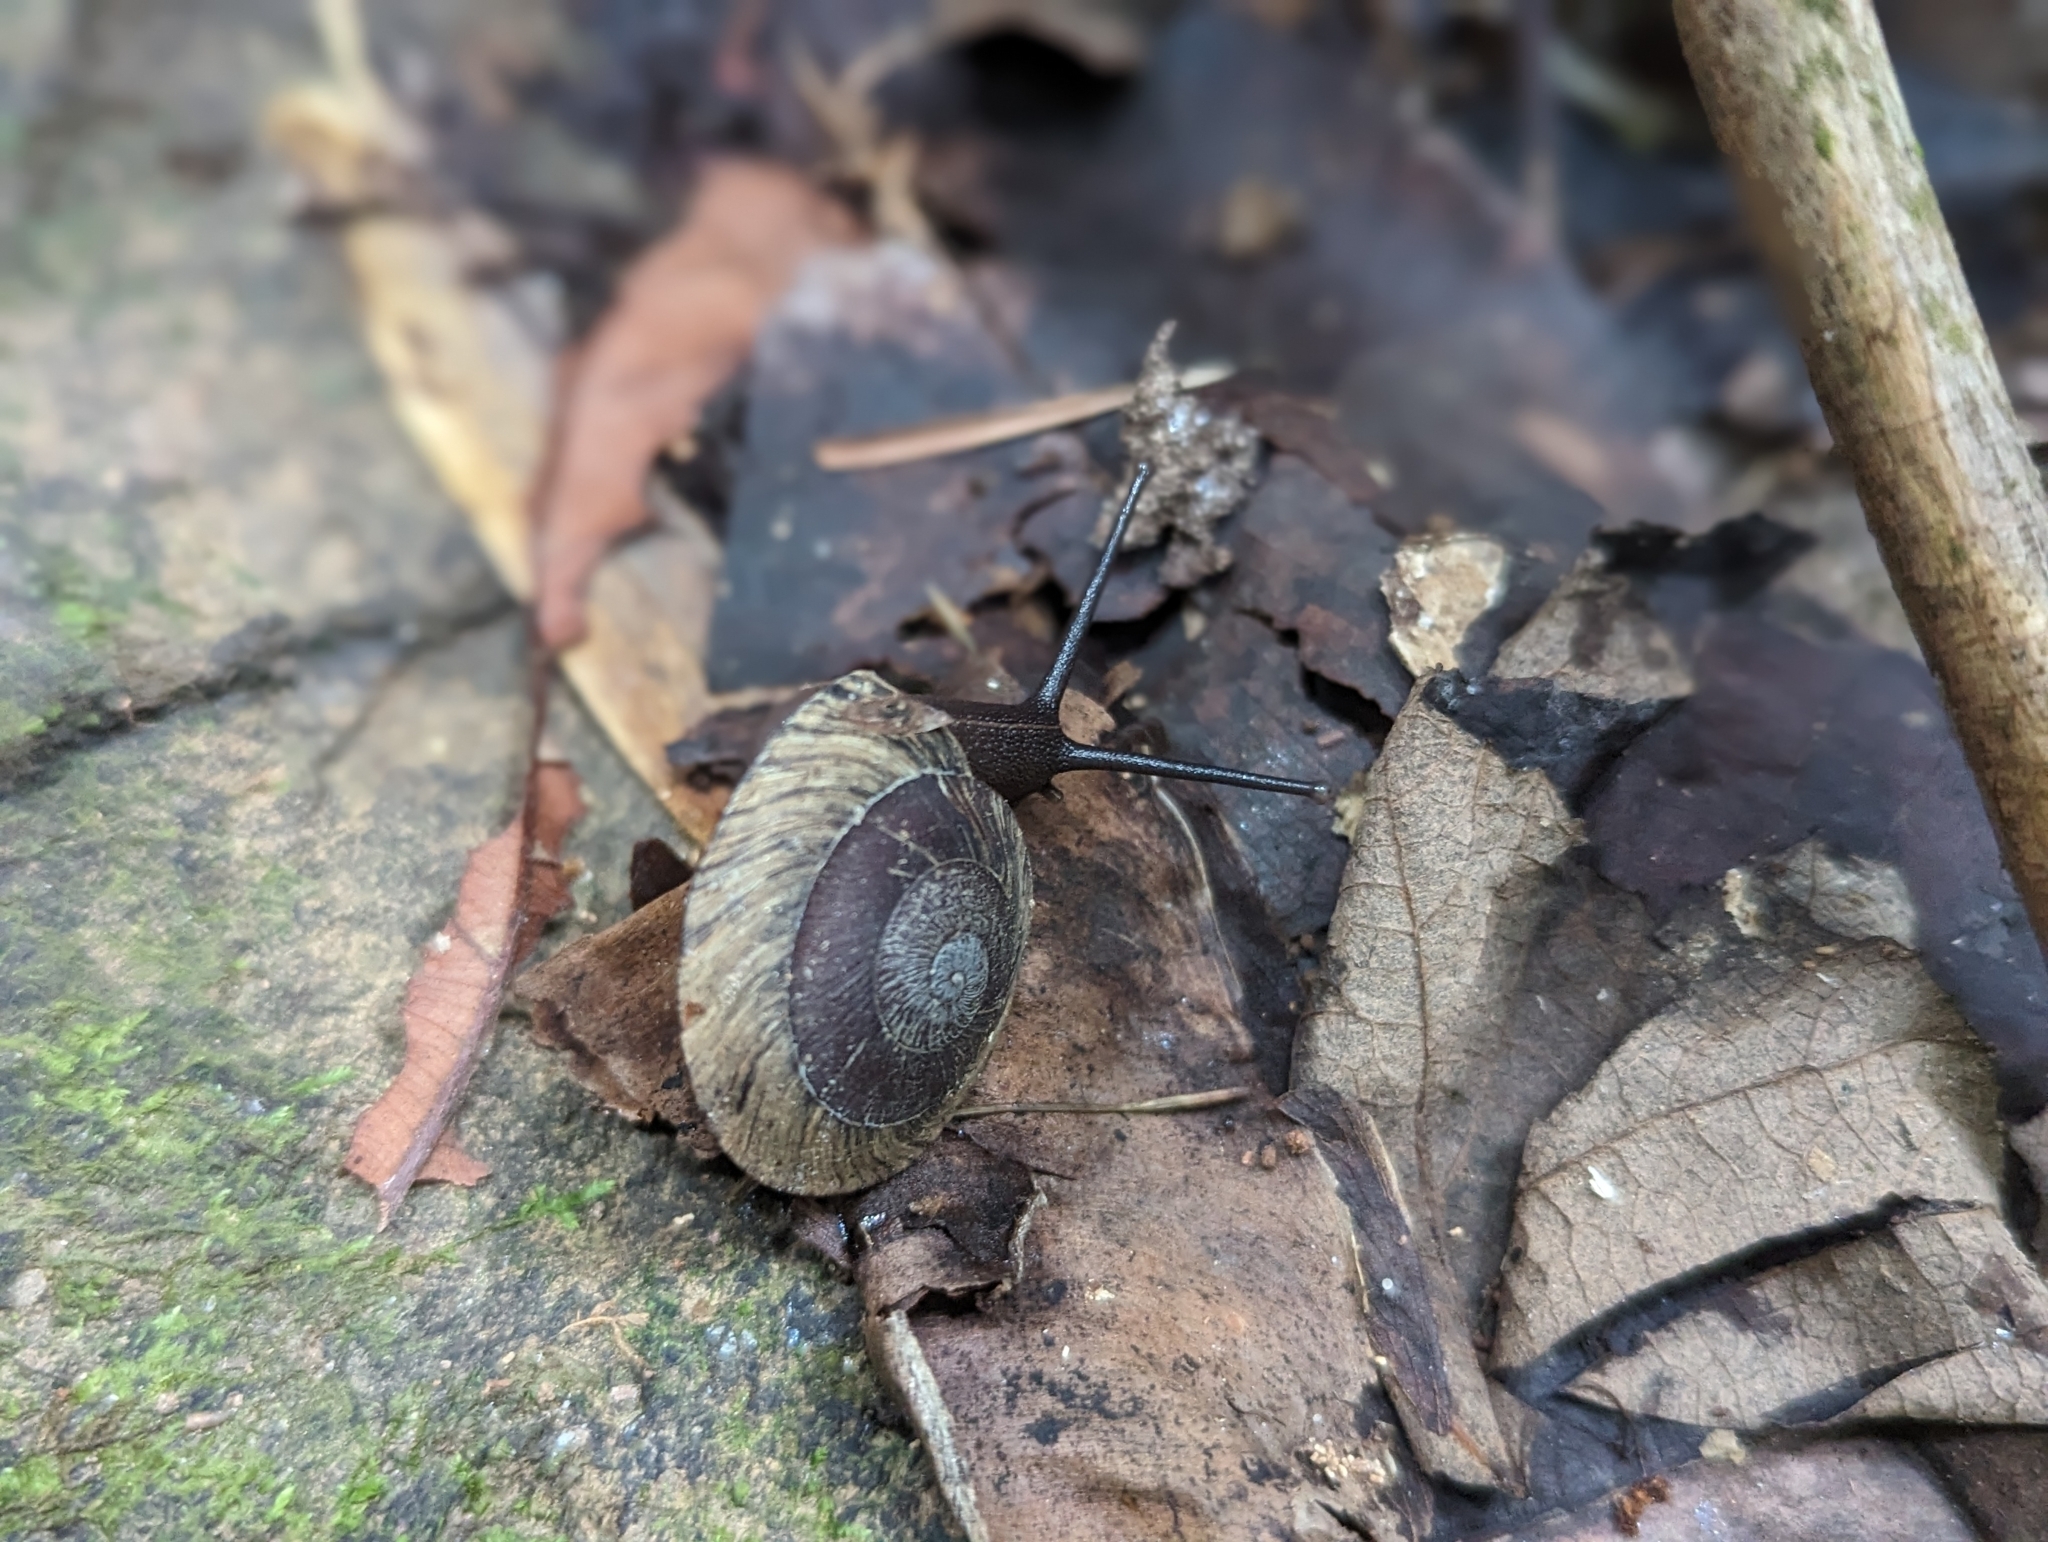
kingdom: Animalia
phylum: Mollusca
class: Gastropoda
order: Stylommatophora
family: Solaropsidae
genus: Caracolus
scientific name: Caracolus carocolla
